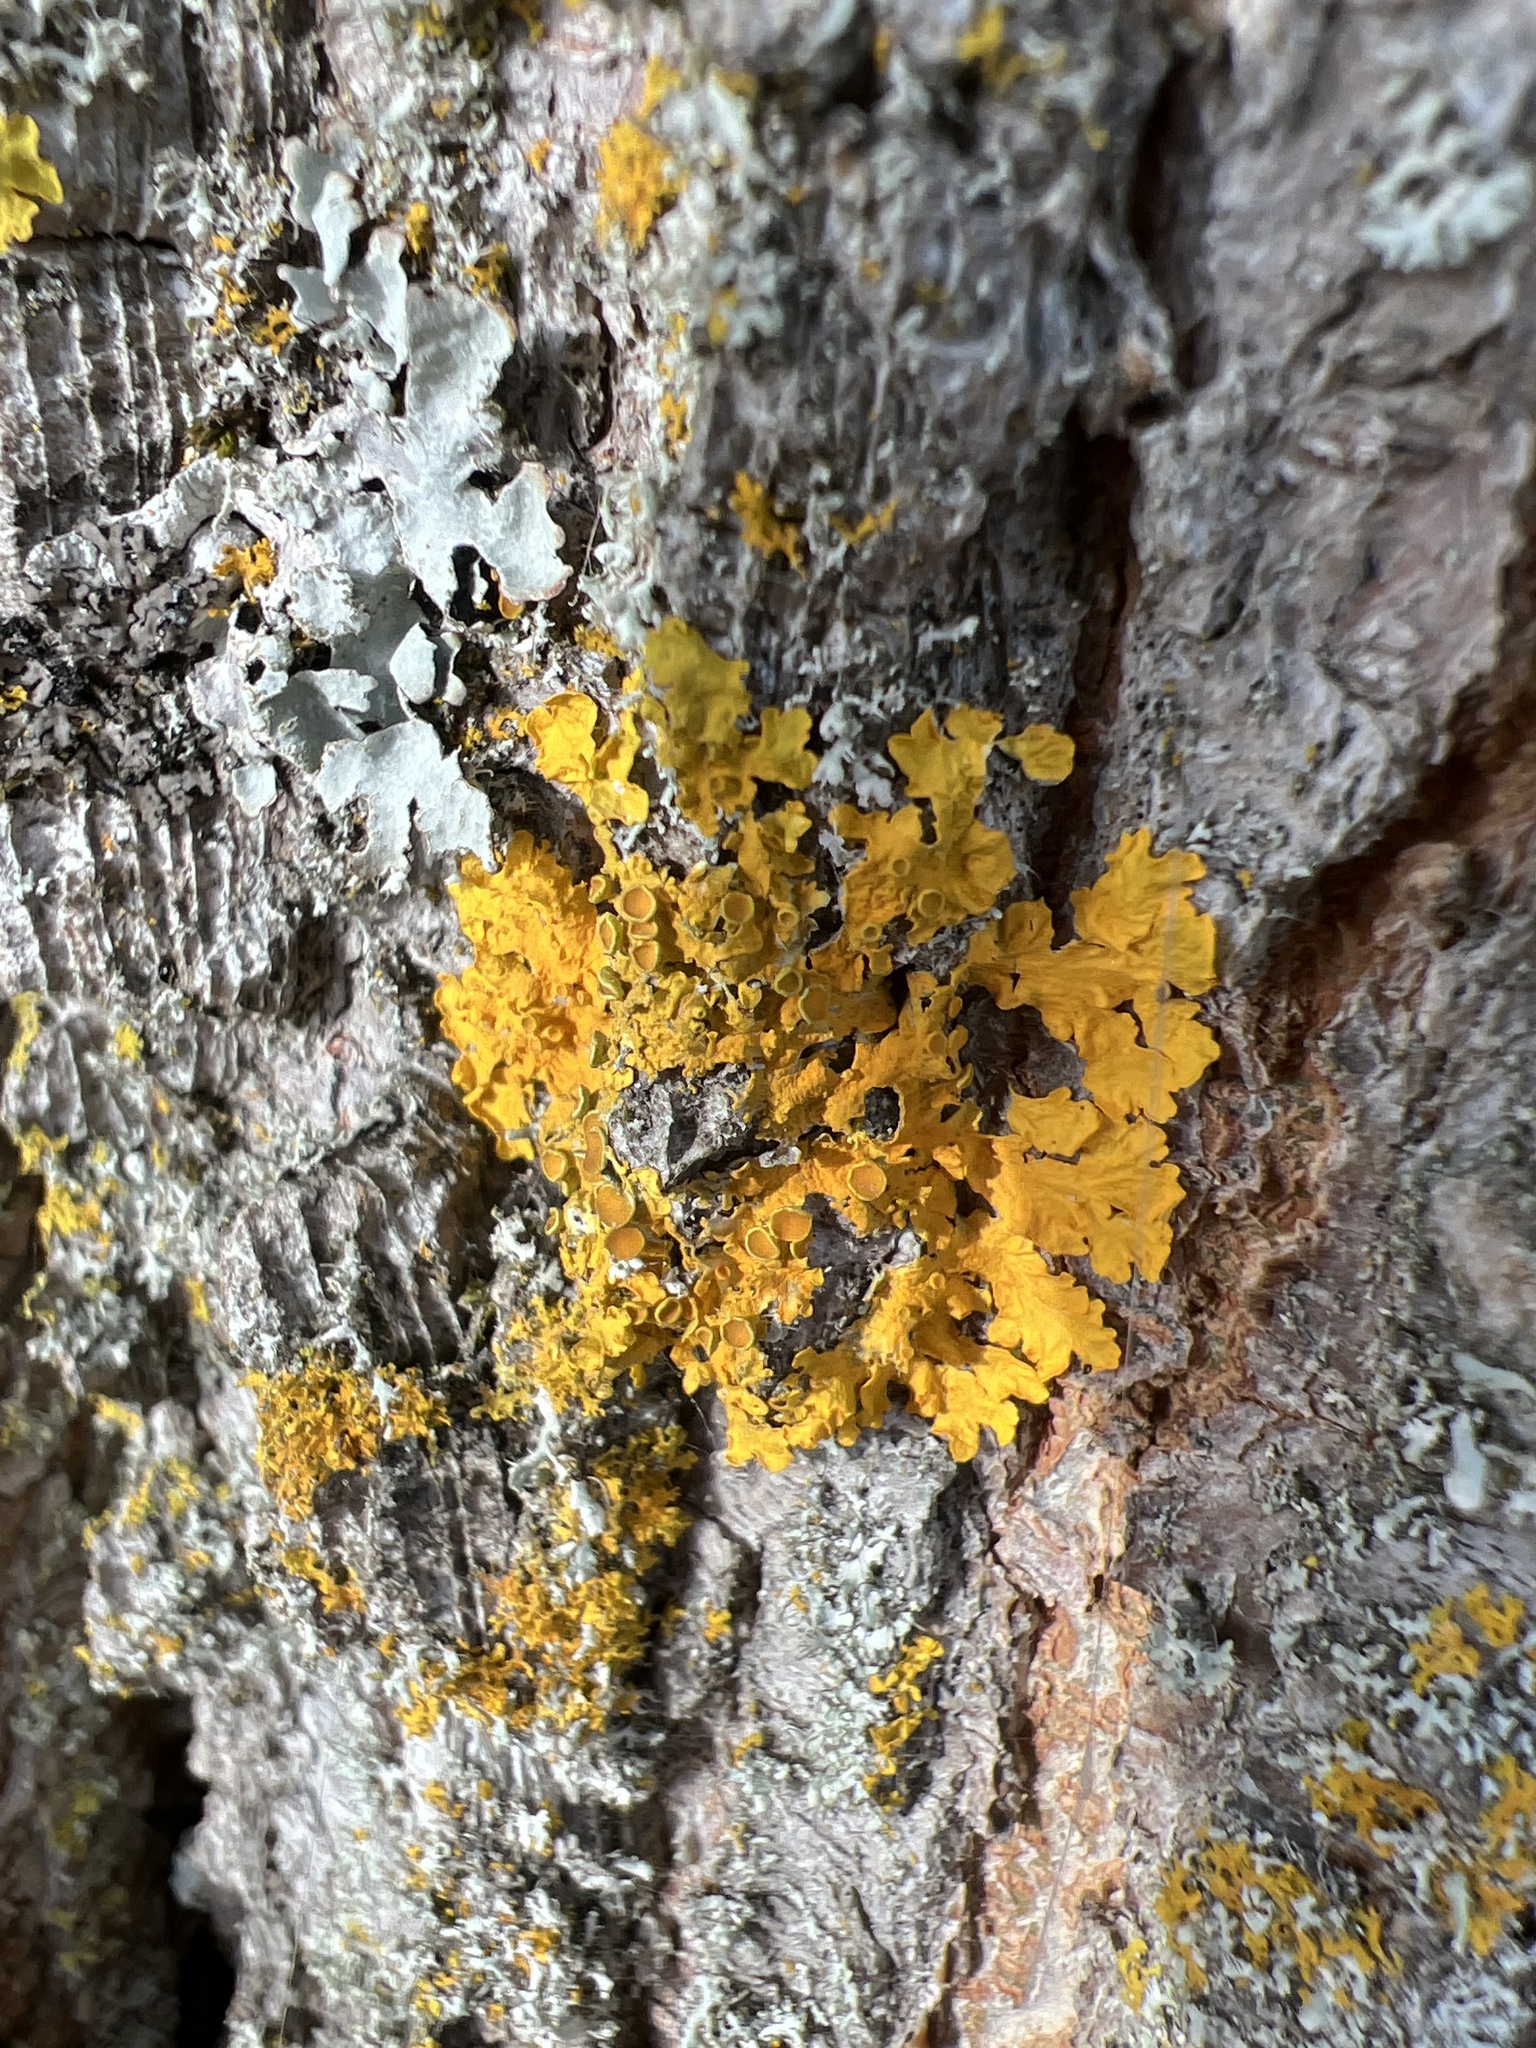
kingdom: Fungi
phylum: Ascomycota
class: Lecanoromycetes
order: Teloschistales
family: Teloschistaceae
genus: Xanthoria
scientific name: Xanthoria parietina
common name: Common orange lichen
